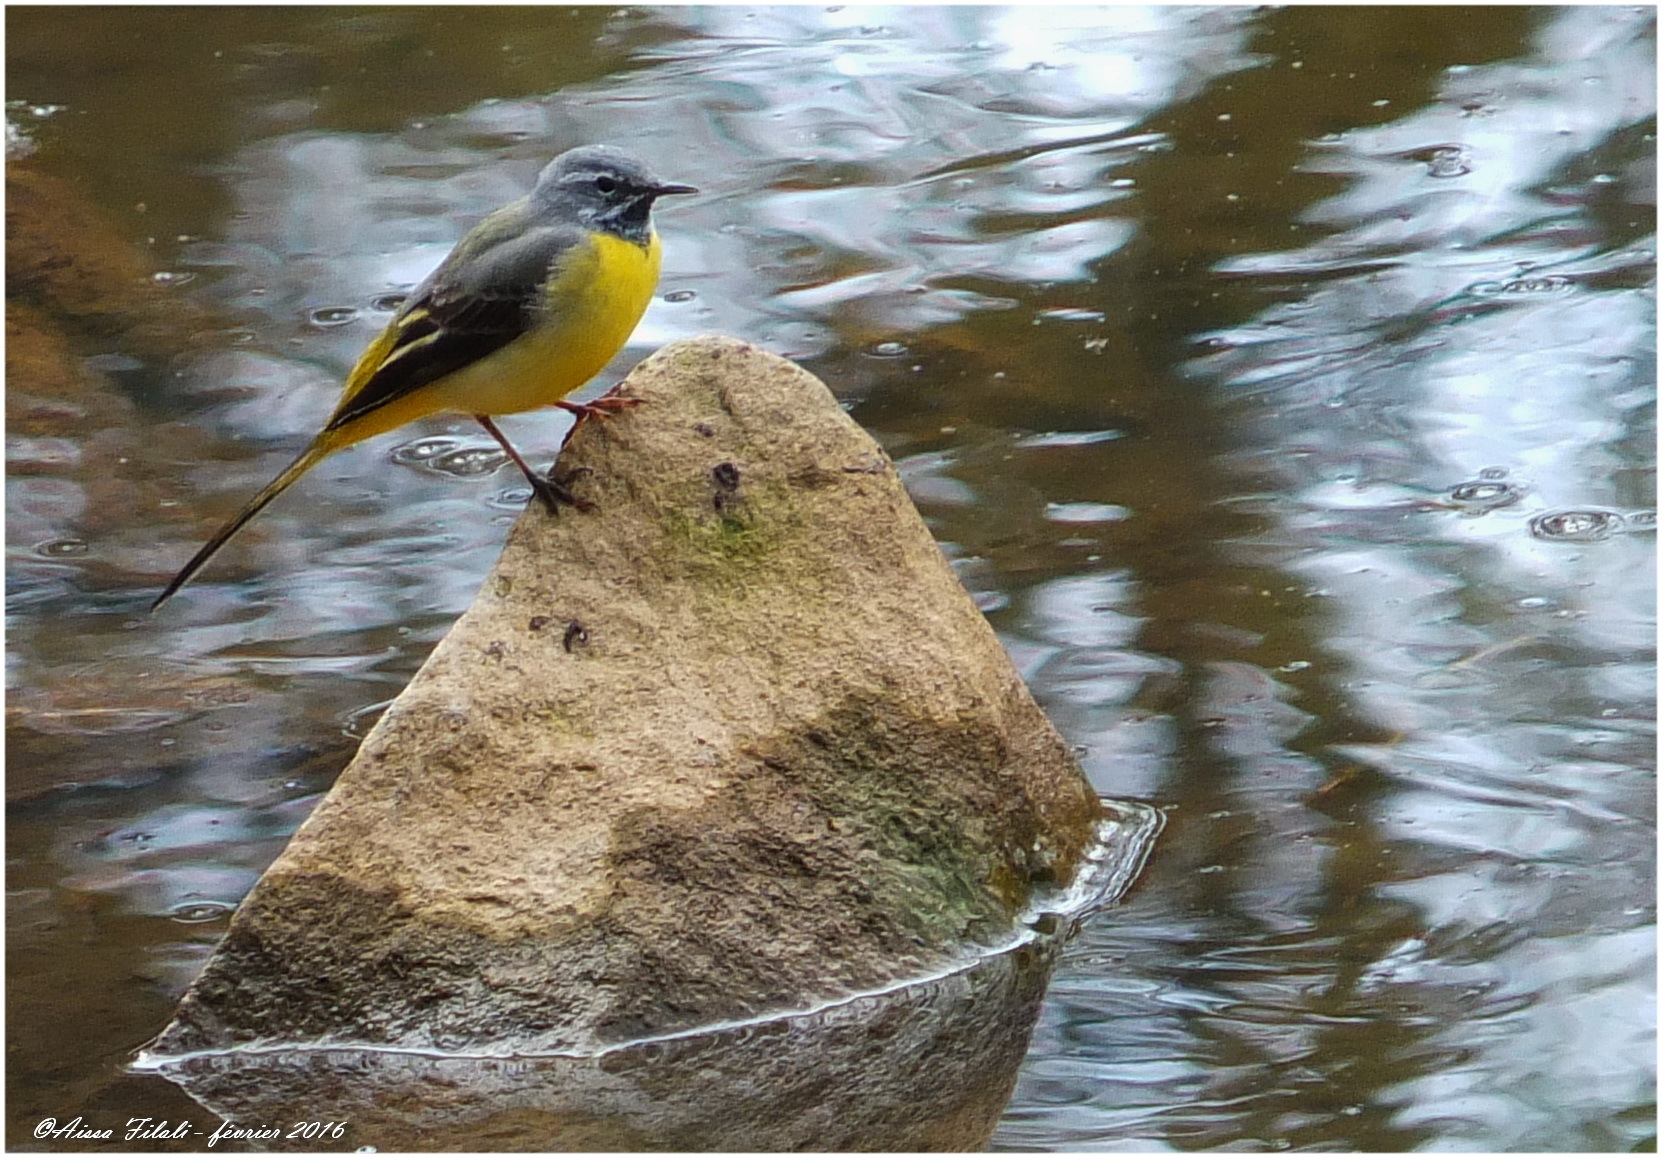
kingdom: Animalia
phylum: Chordata
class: Aves
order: Passeriformes
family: Motacillidae
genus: Motacilla
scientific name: Motacilla cinerea
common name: Grey wagtail
